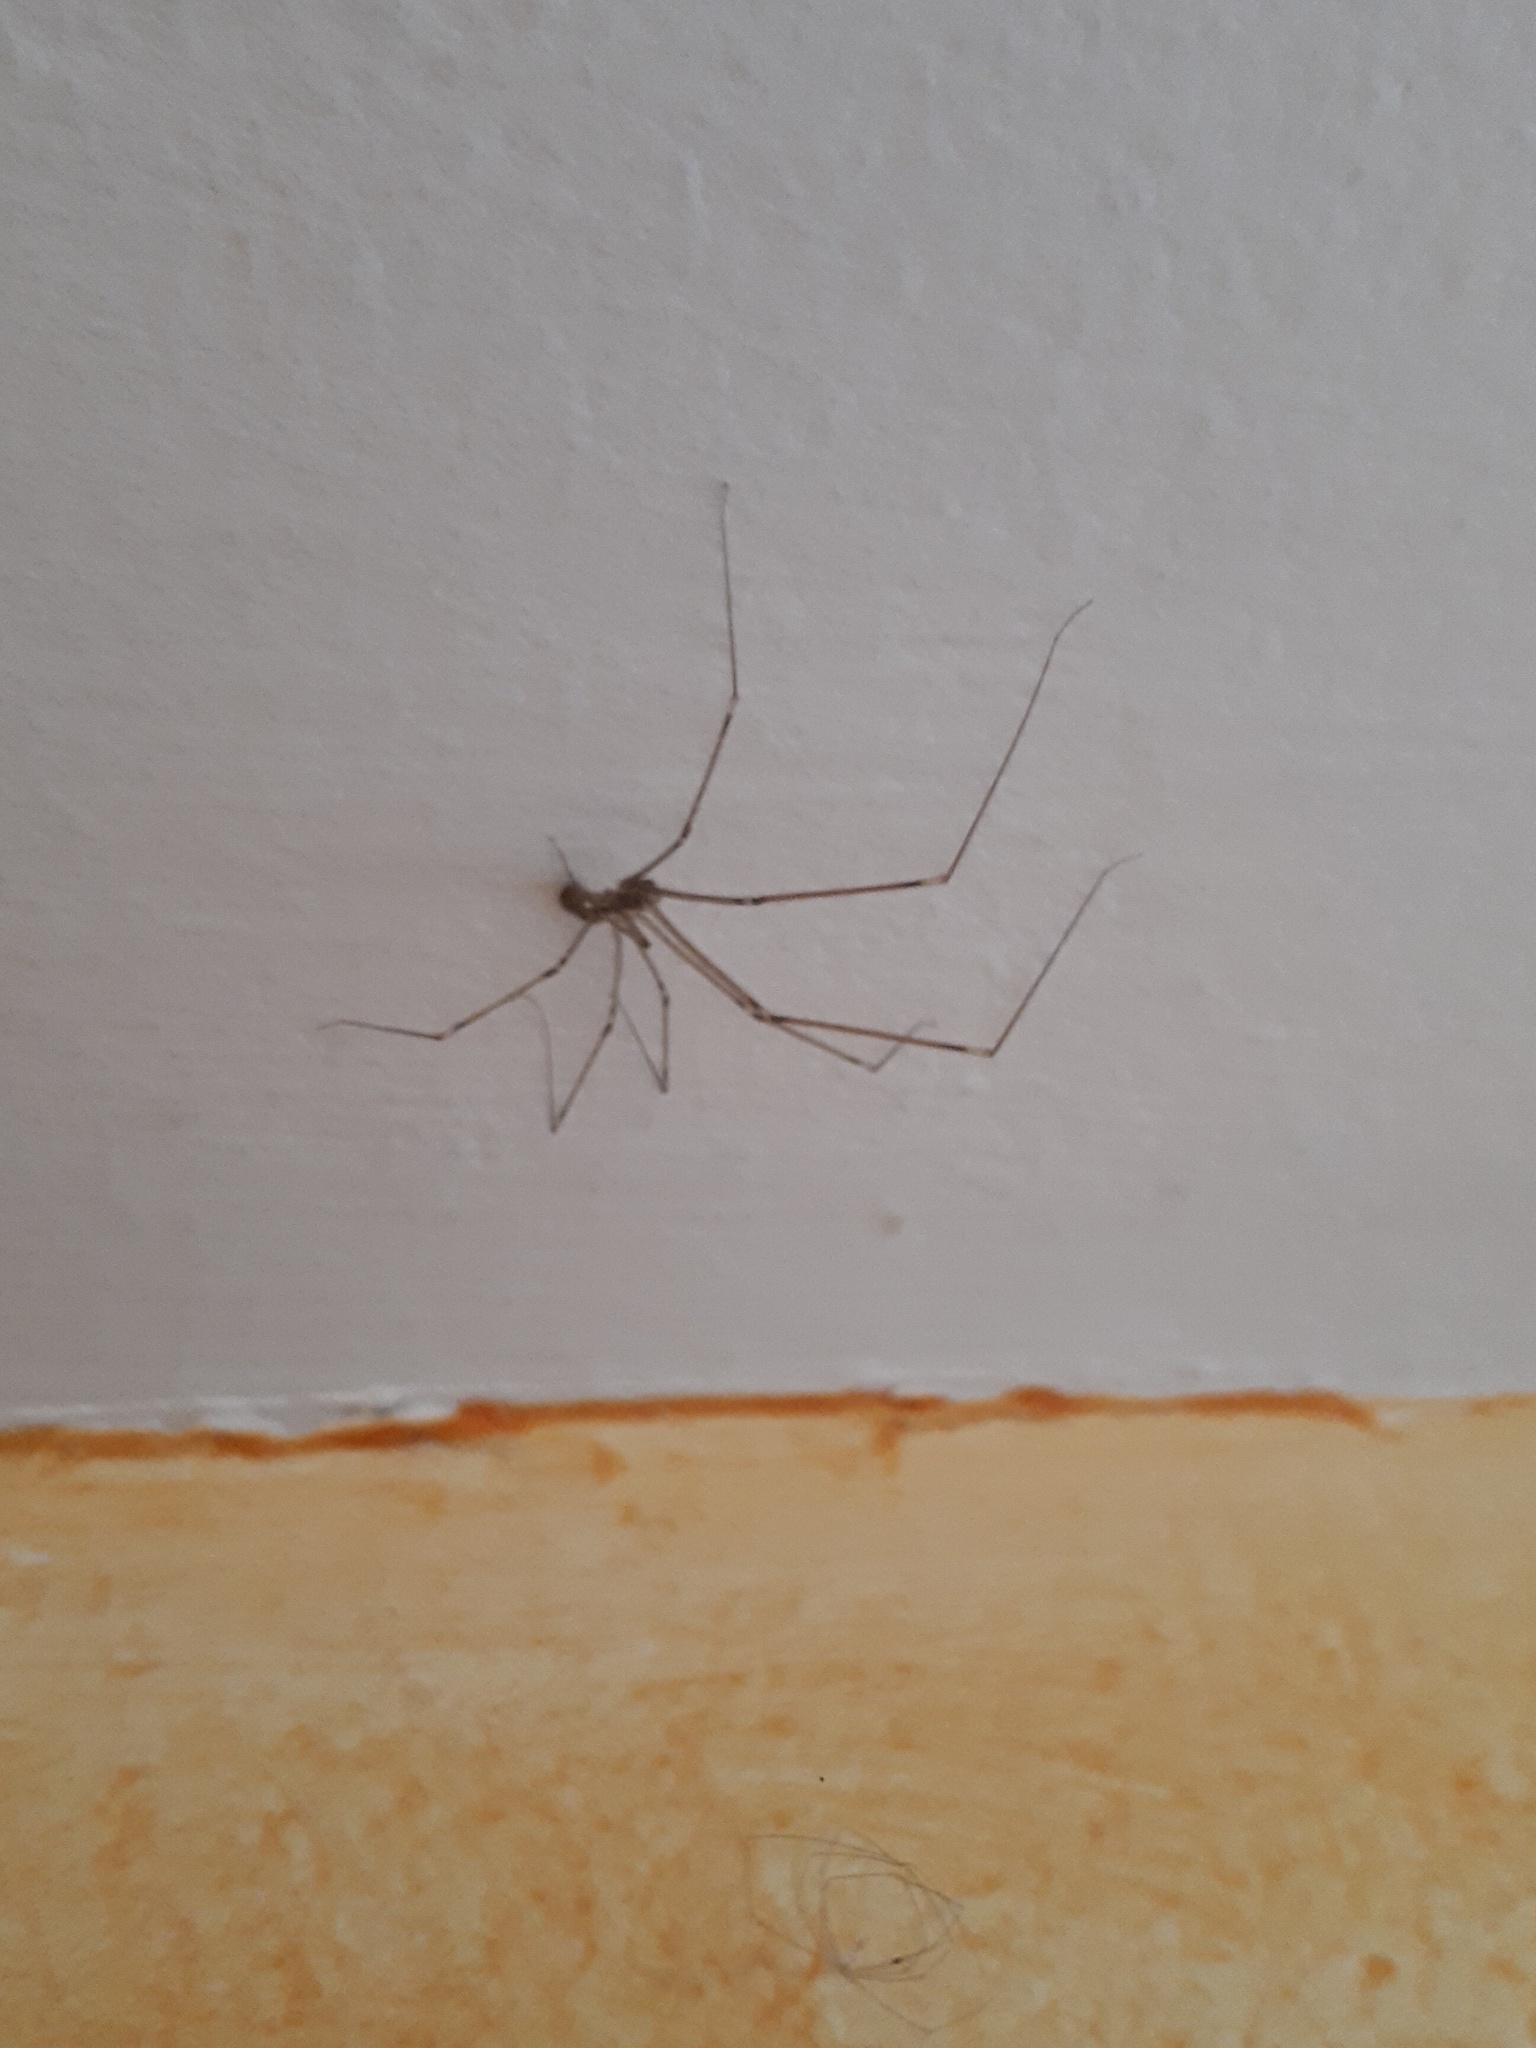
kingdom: Animalia
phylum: Arthropoda
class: Arachnida
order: Araneae
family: Pholcidae
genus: Pholcus
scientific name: Pholcus phalangioides
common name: Longbodied cellar spider
